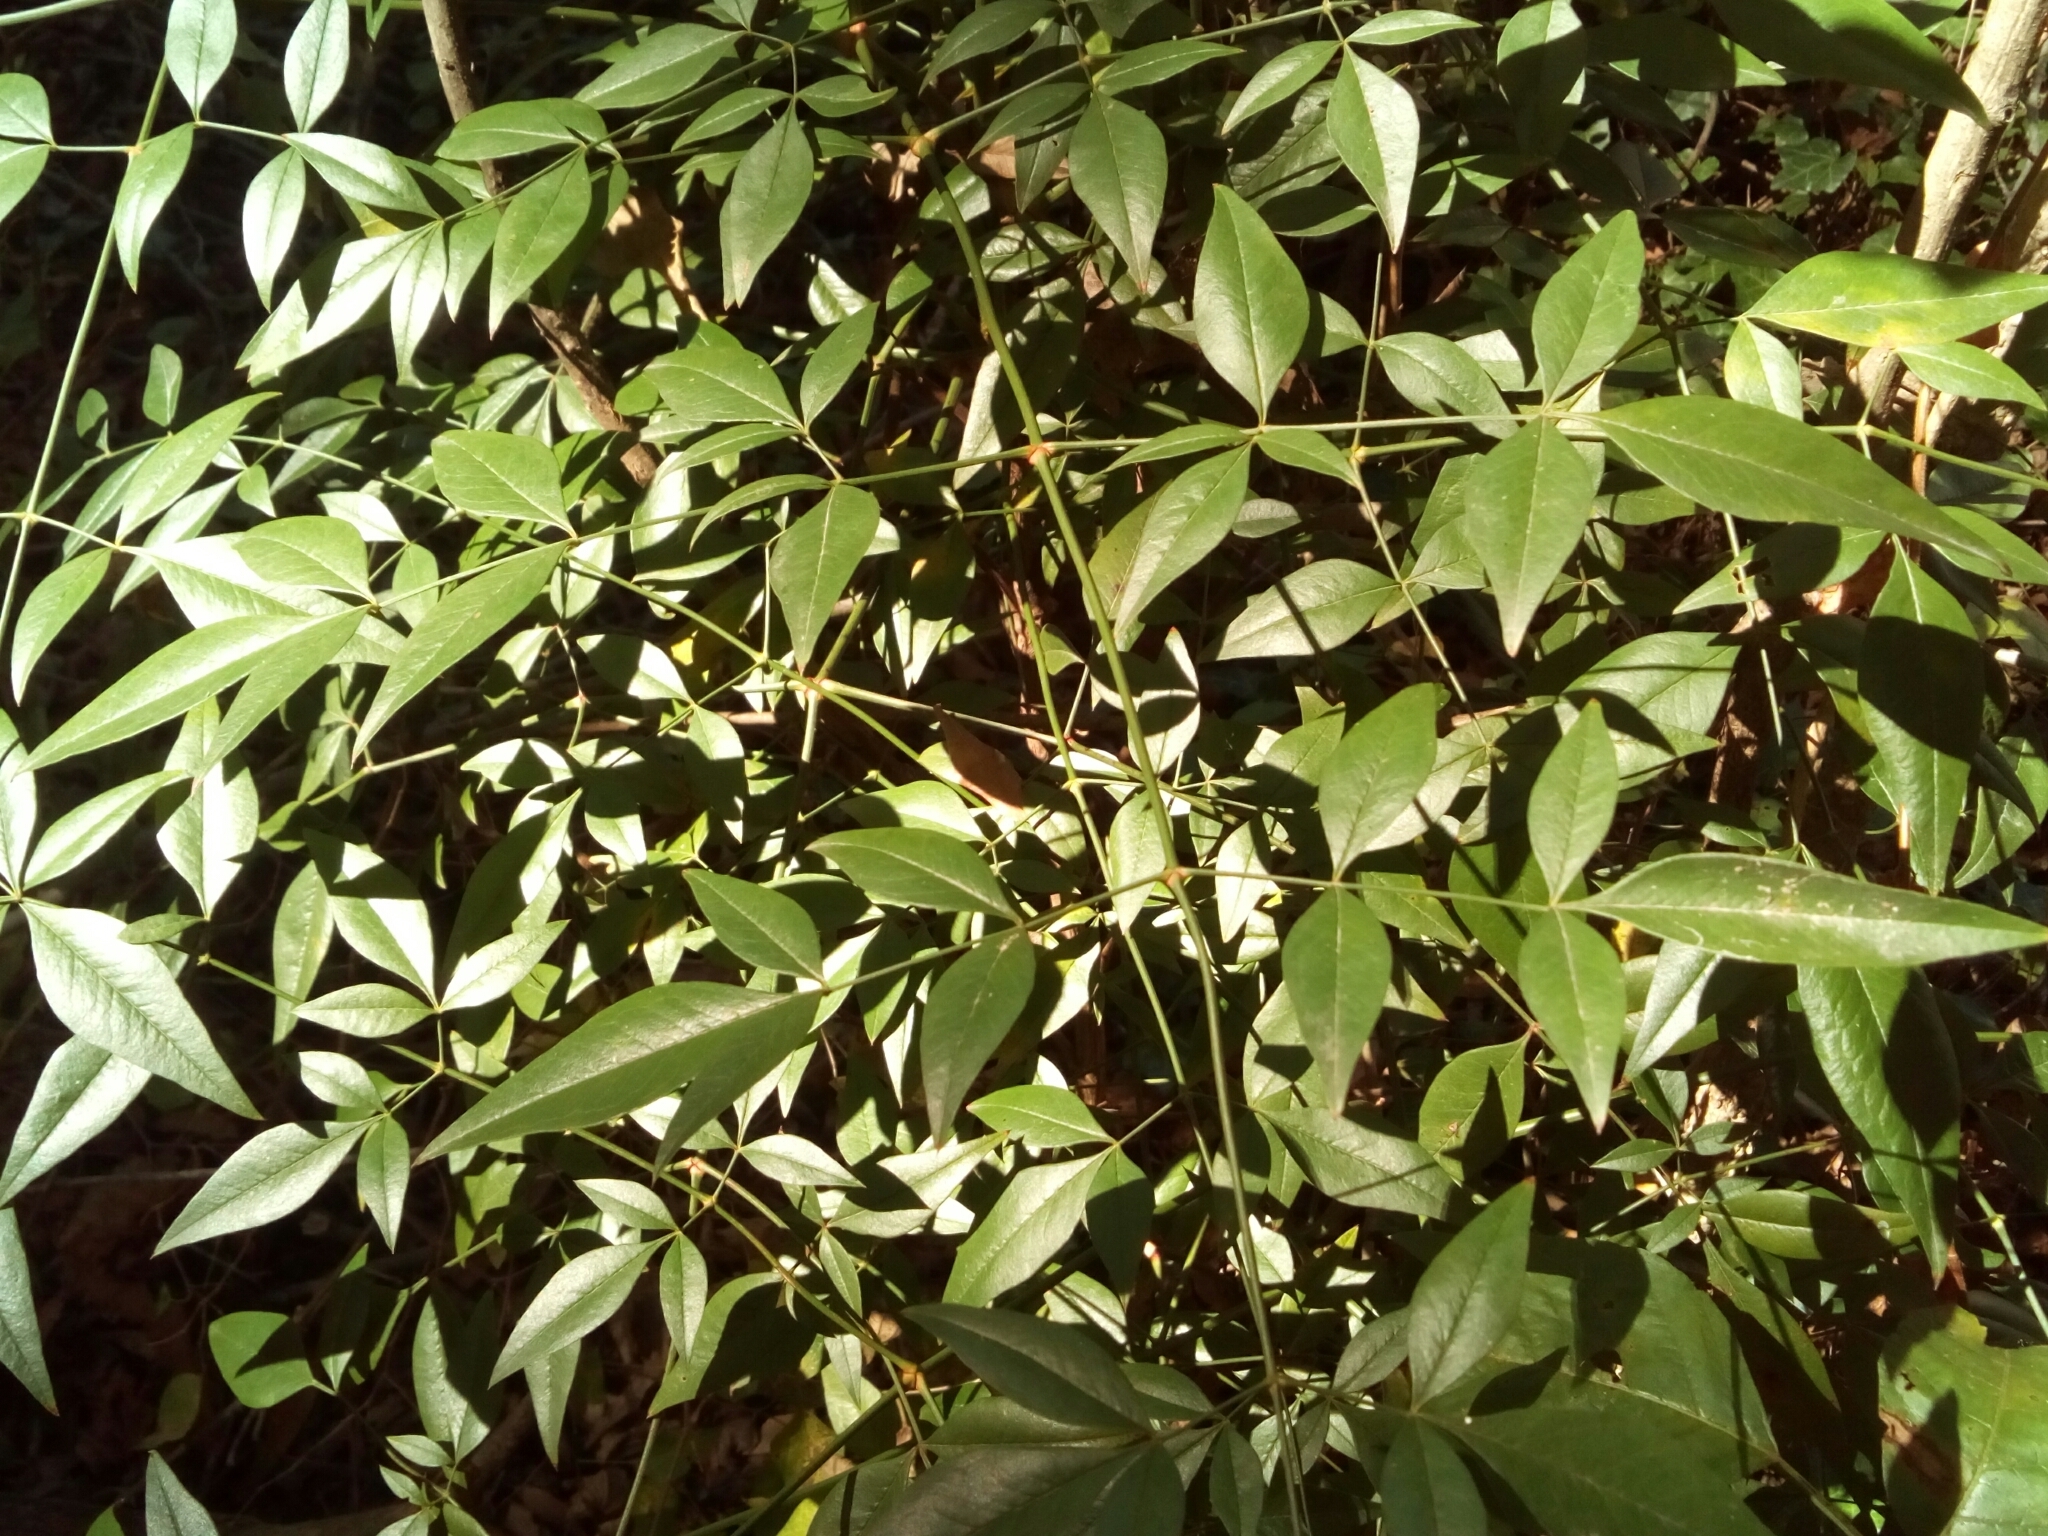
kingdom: Plantae
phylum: Tracheophyta
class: Magnoliopsida
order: Ranunculales
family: Berberidaceae
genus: Nandina
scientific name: Nandina domestica
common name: Sacred bamboo
